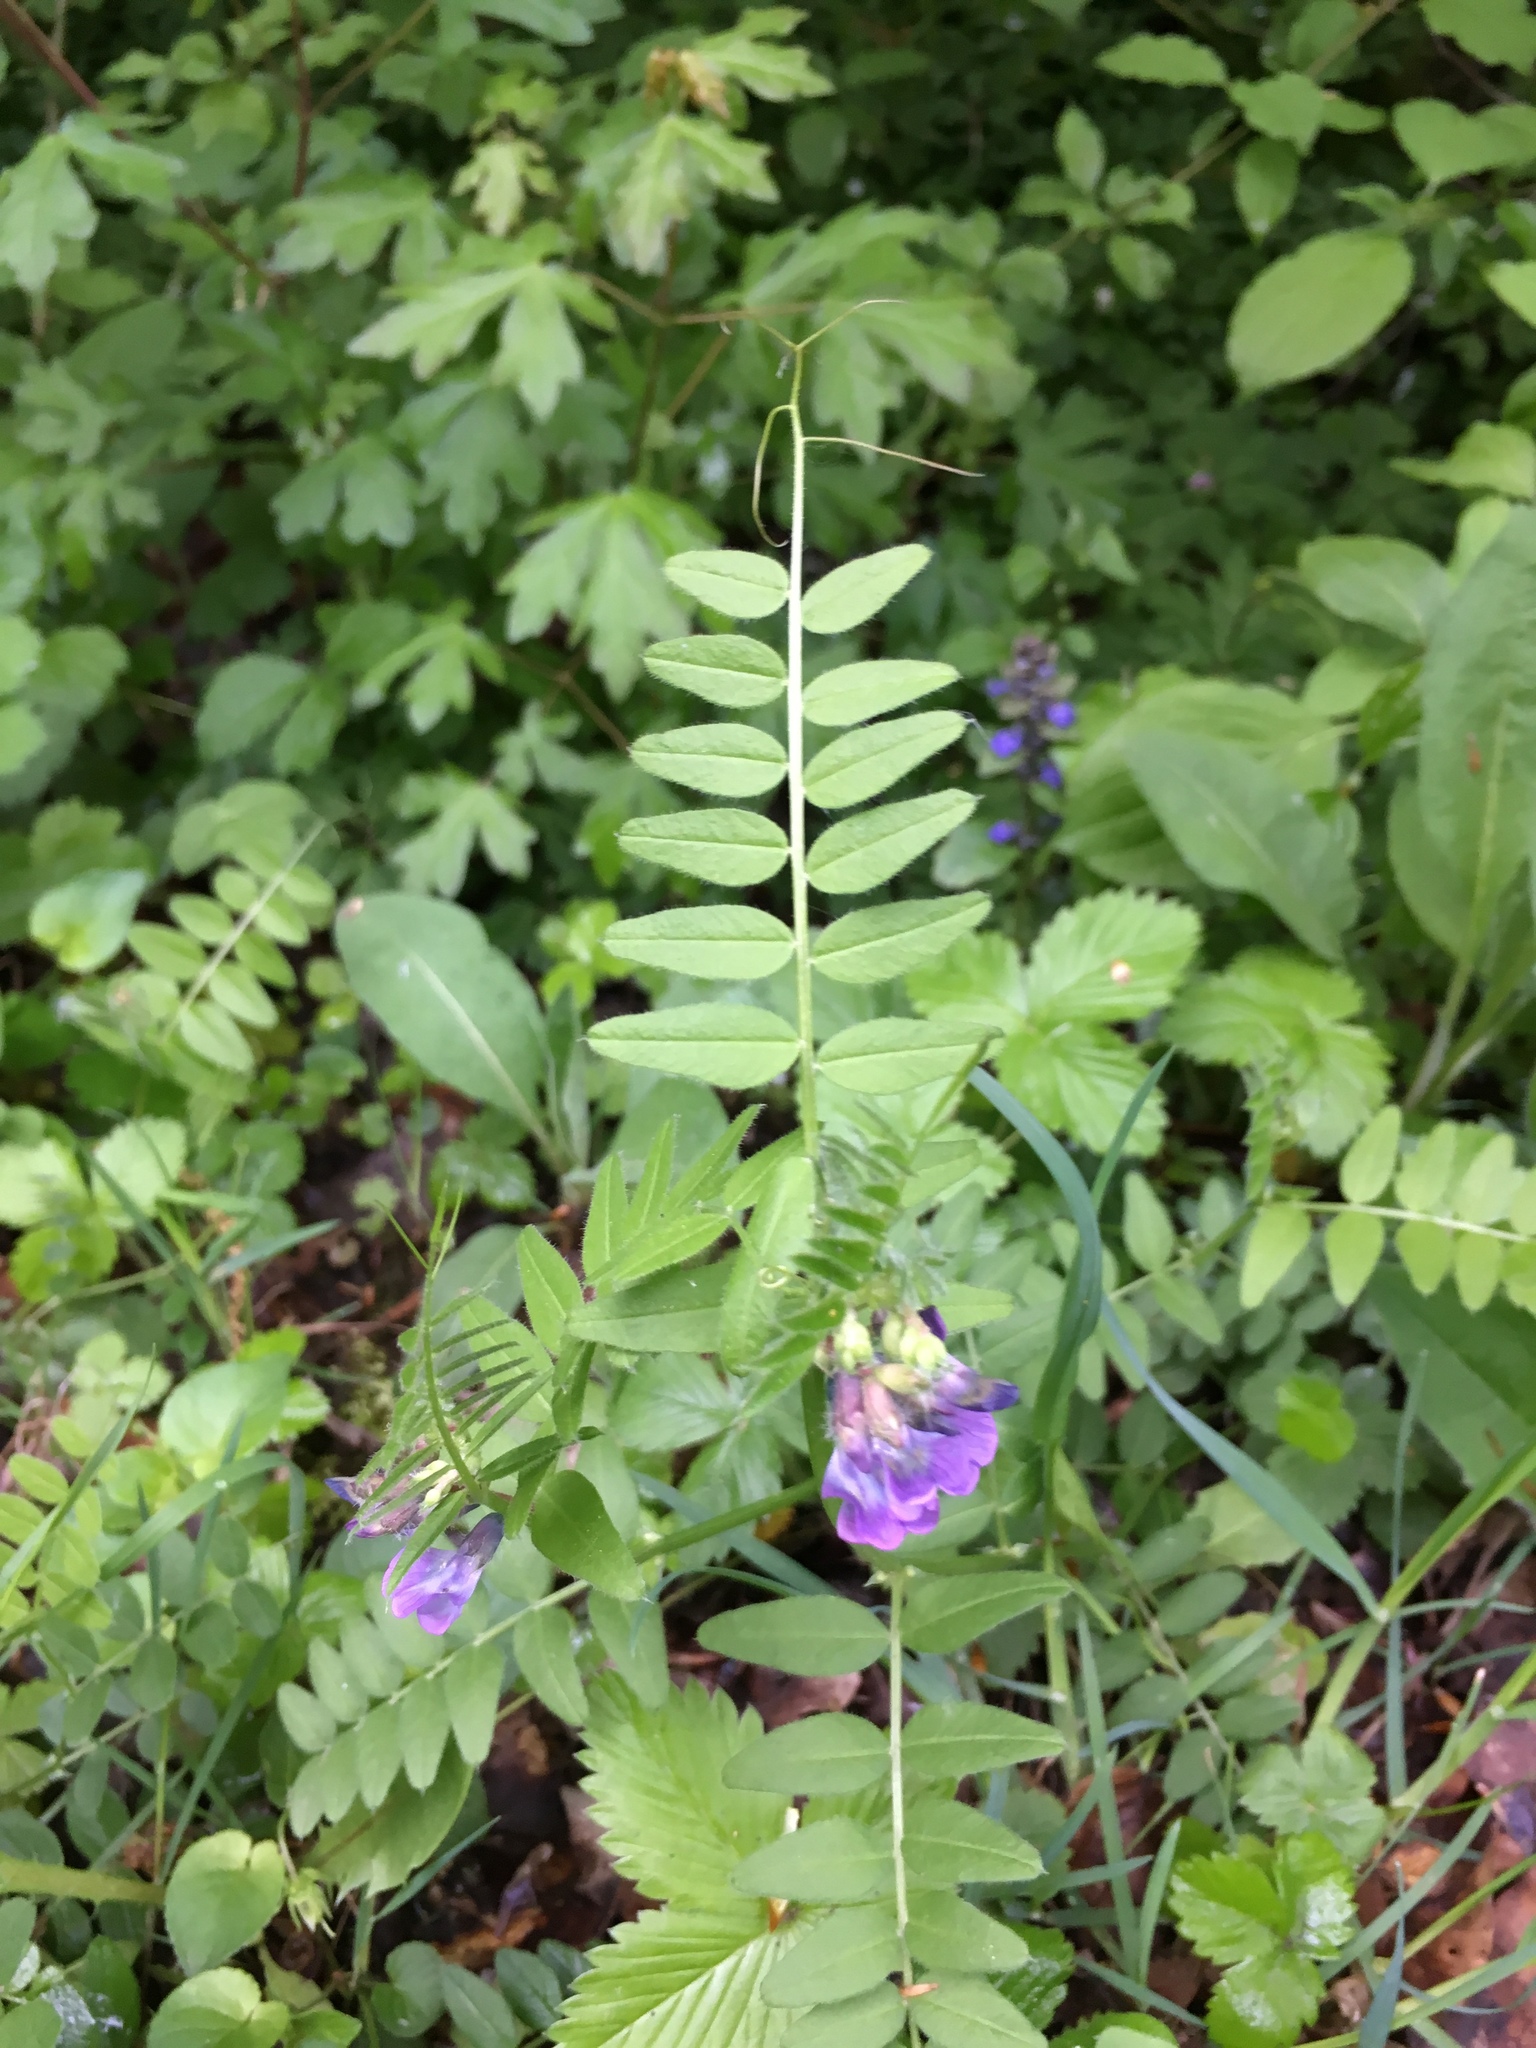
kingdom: Plantae
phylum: Tracheophyta
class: Magnoliopsida
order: Fabales
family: Fabaceae
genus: Vicia
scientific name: Vicia sepium
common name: Bush vetch
